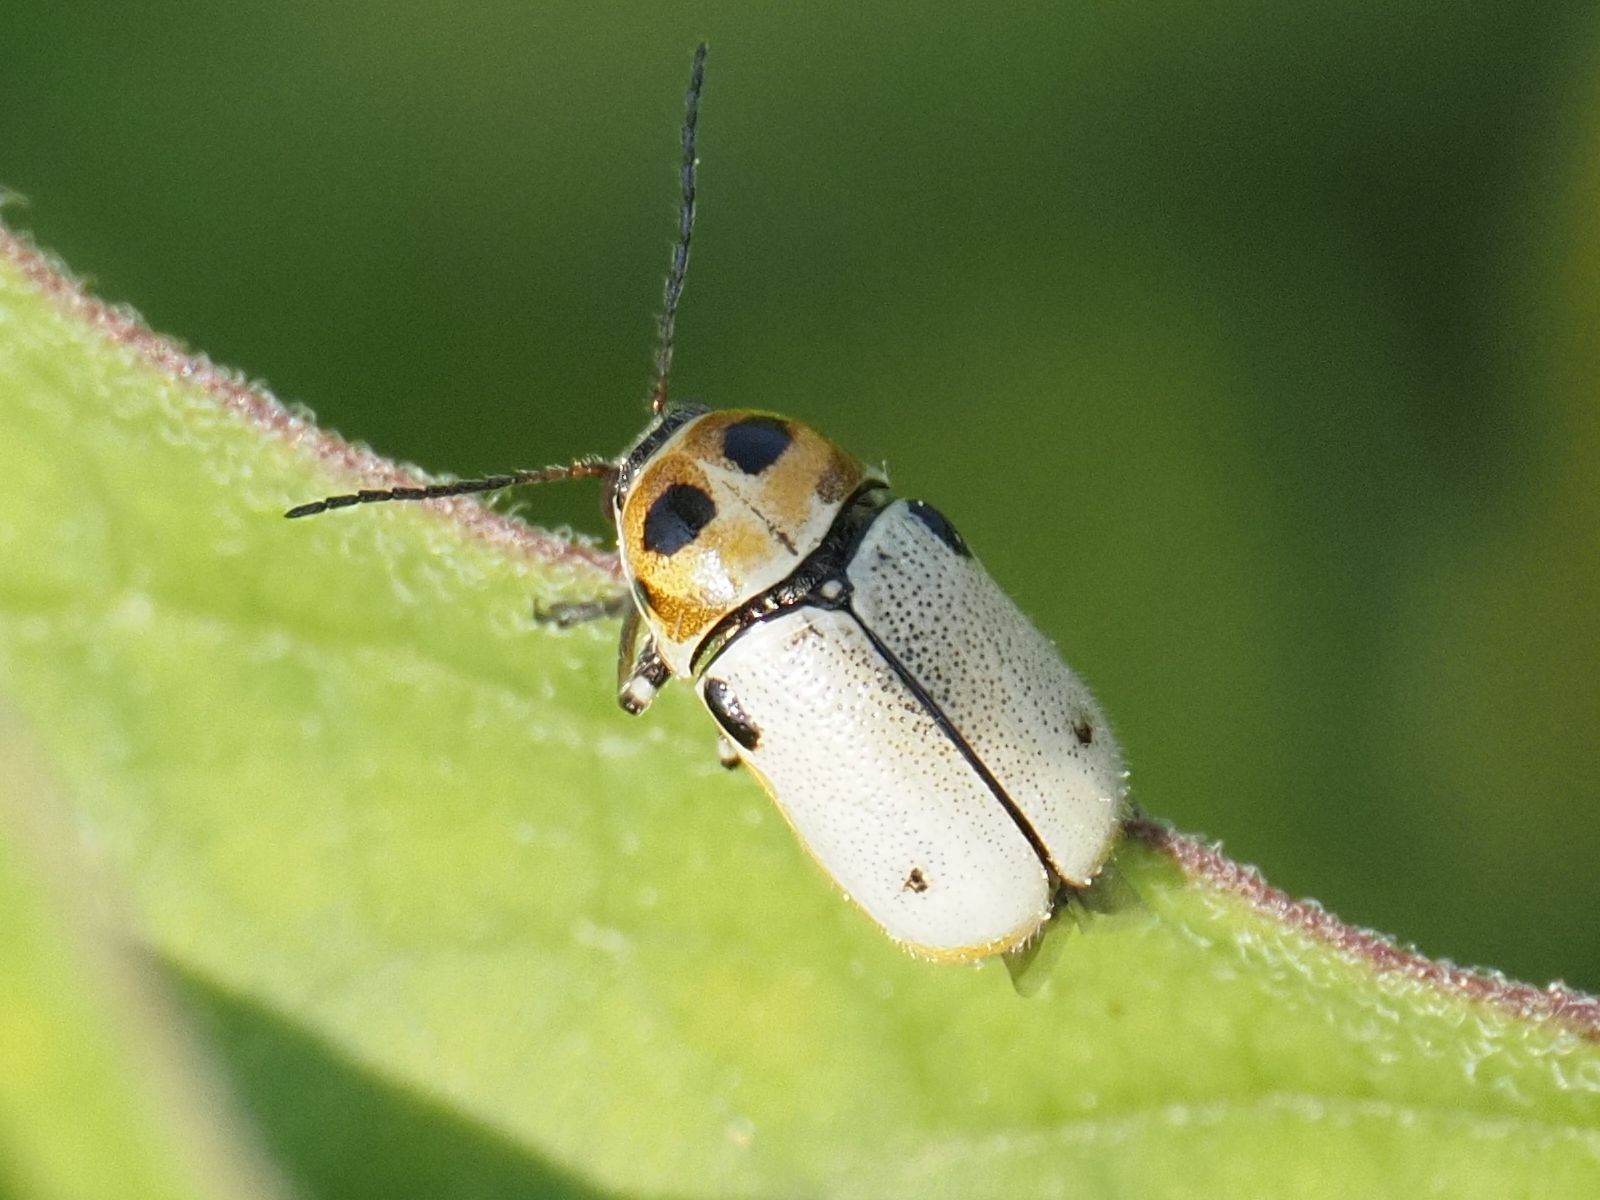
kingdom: Animalia
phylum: Arthropoda
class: Insecta
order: Coleoptera
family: Chrysomelidae
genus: Cryptocephalus
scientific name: Cryptocephalus quatuordecimmaculatus
